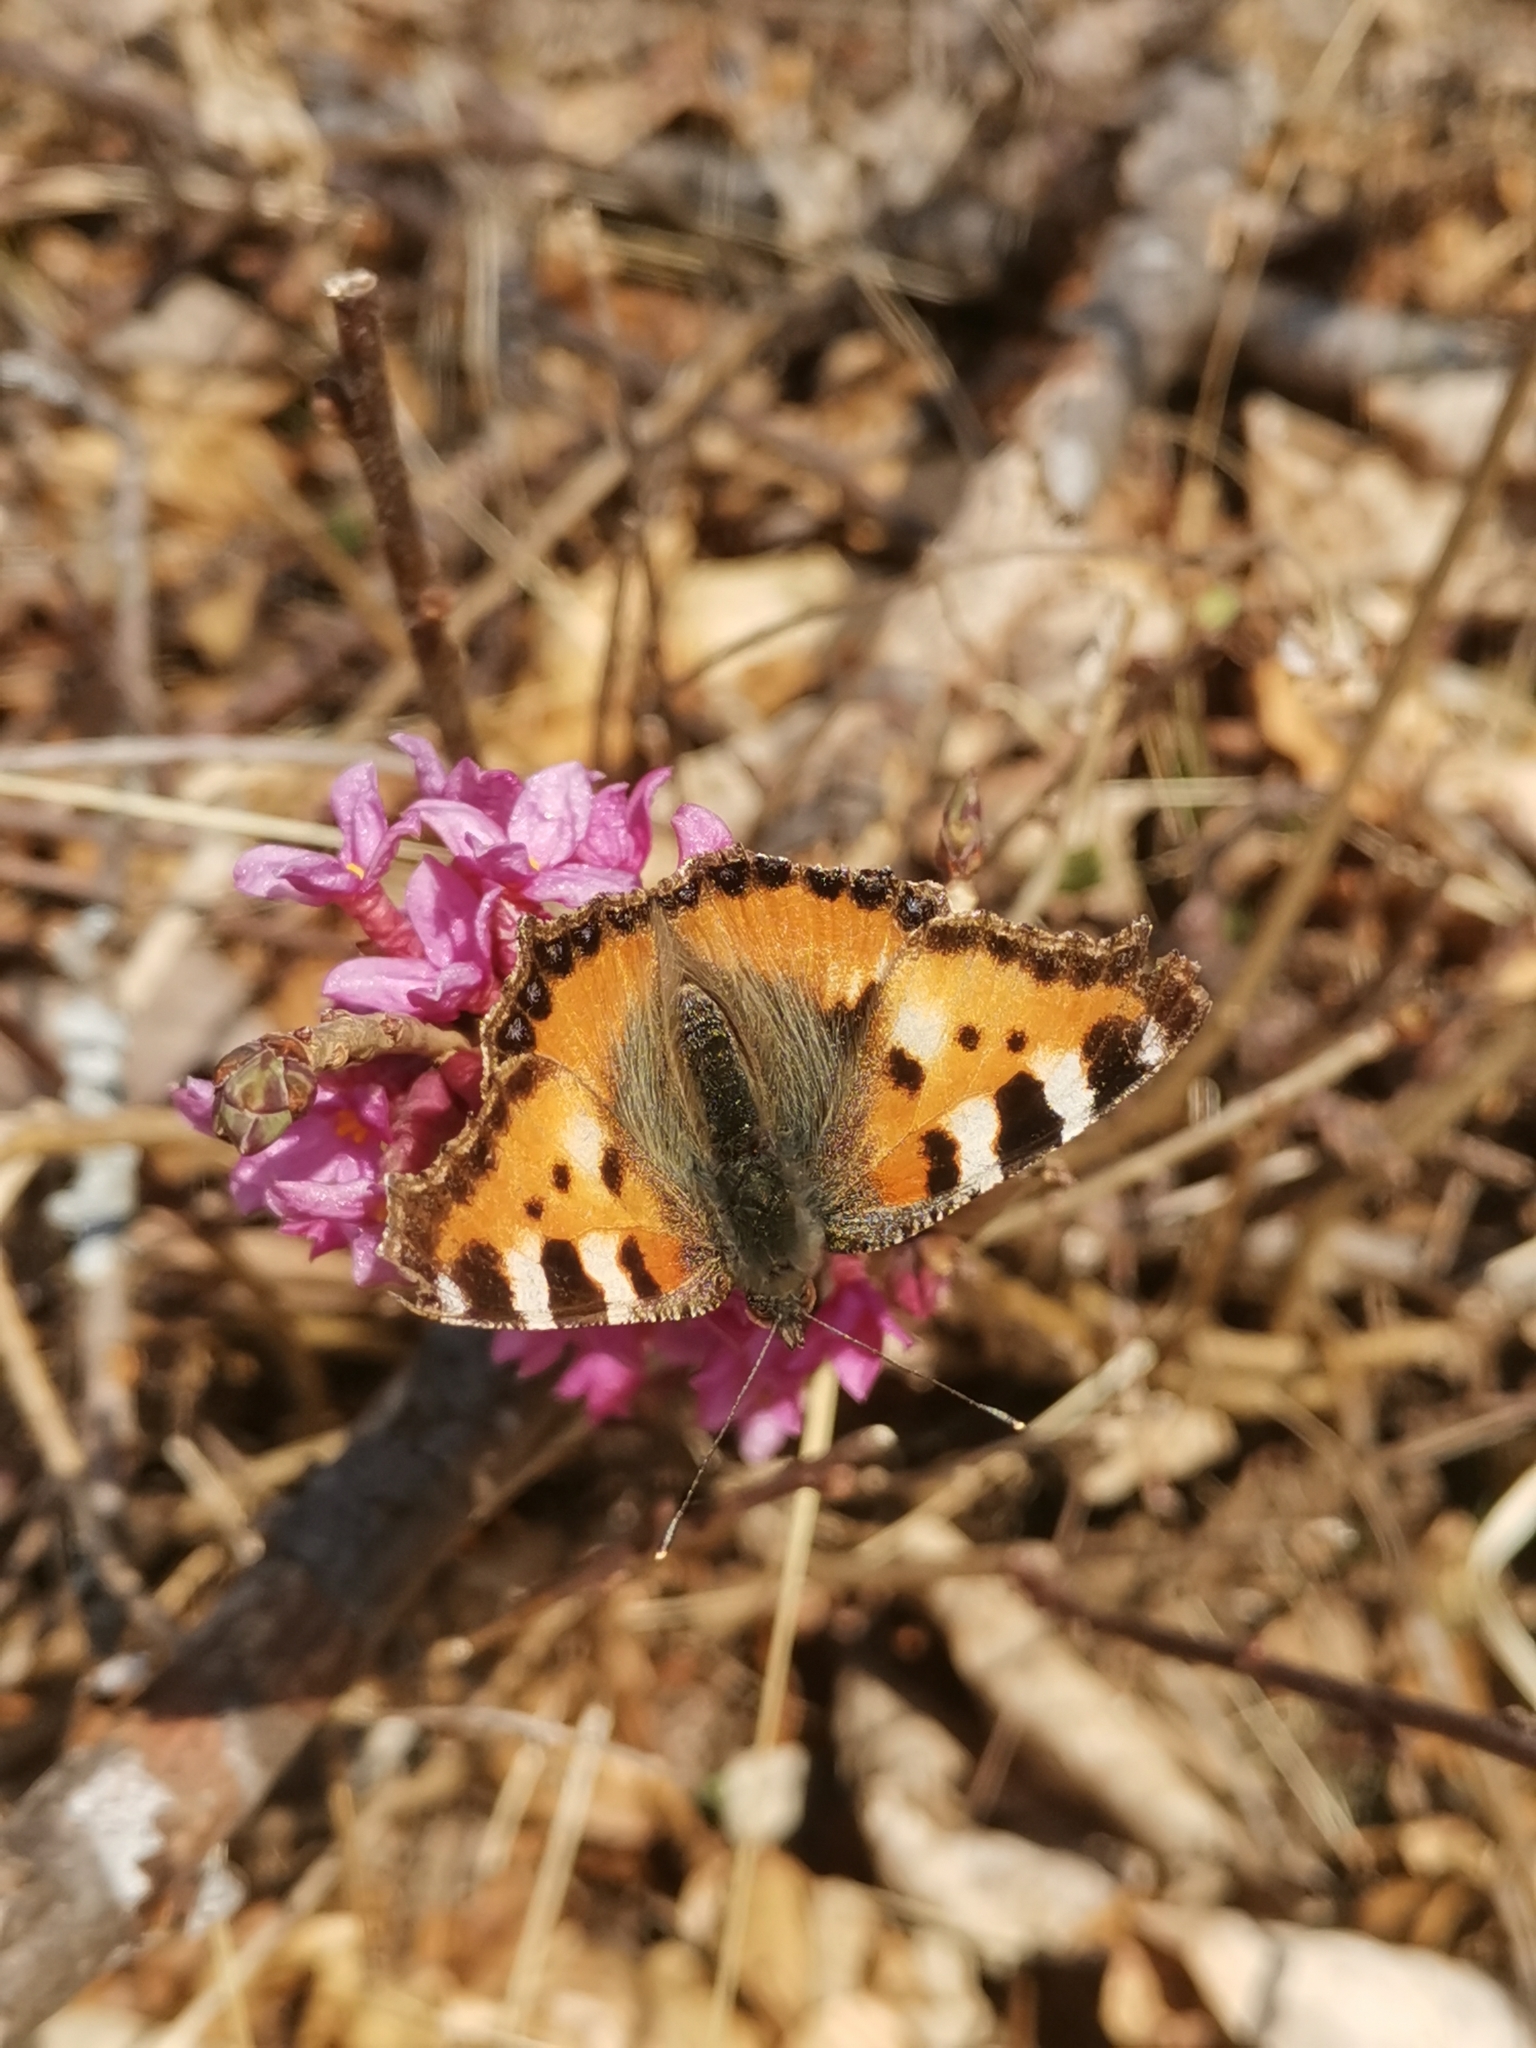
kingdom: Animalia
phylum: Arthropoda
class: Insecta
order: Lepidoptera
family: Nymphalidae
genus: Aglais
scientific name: Aglais urticae
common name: Small tortoiseshell
